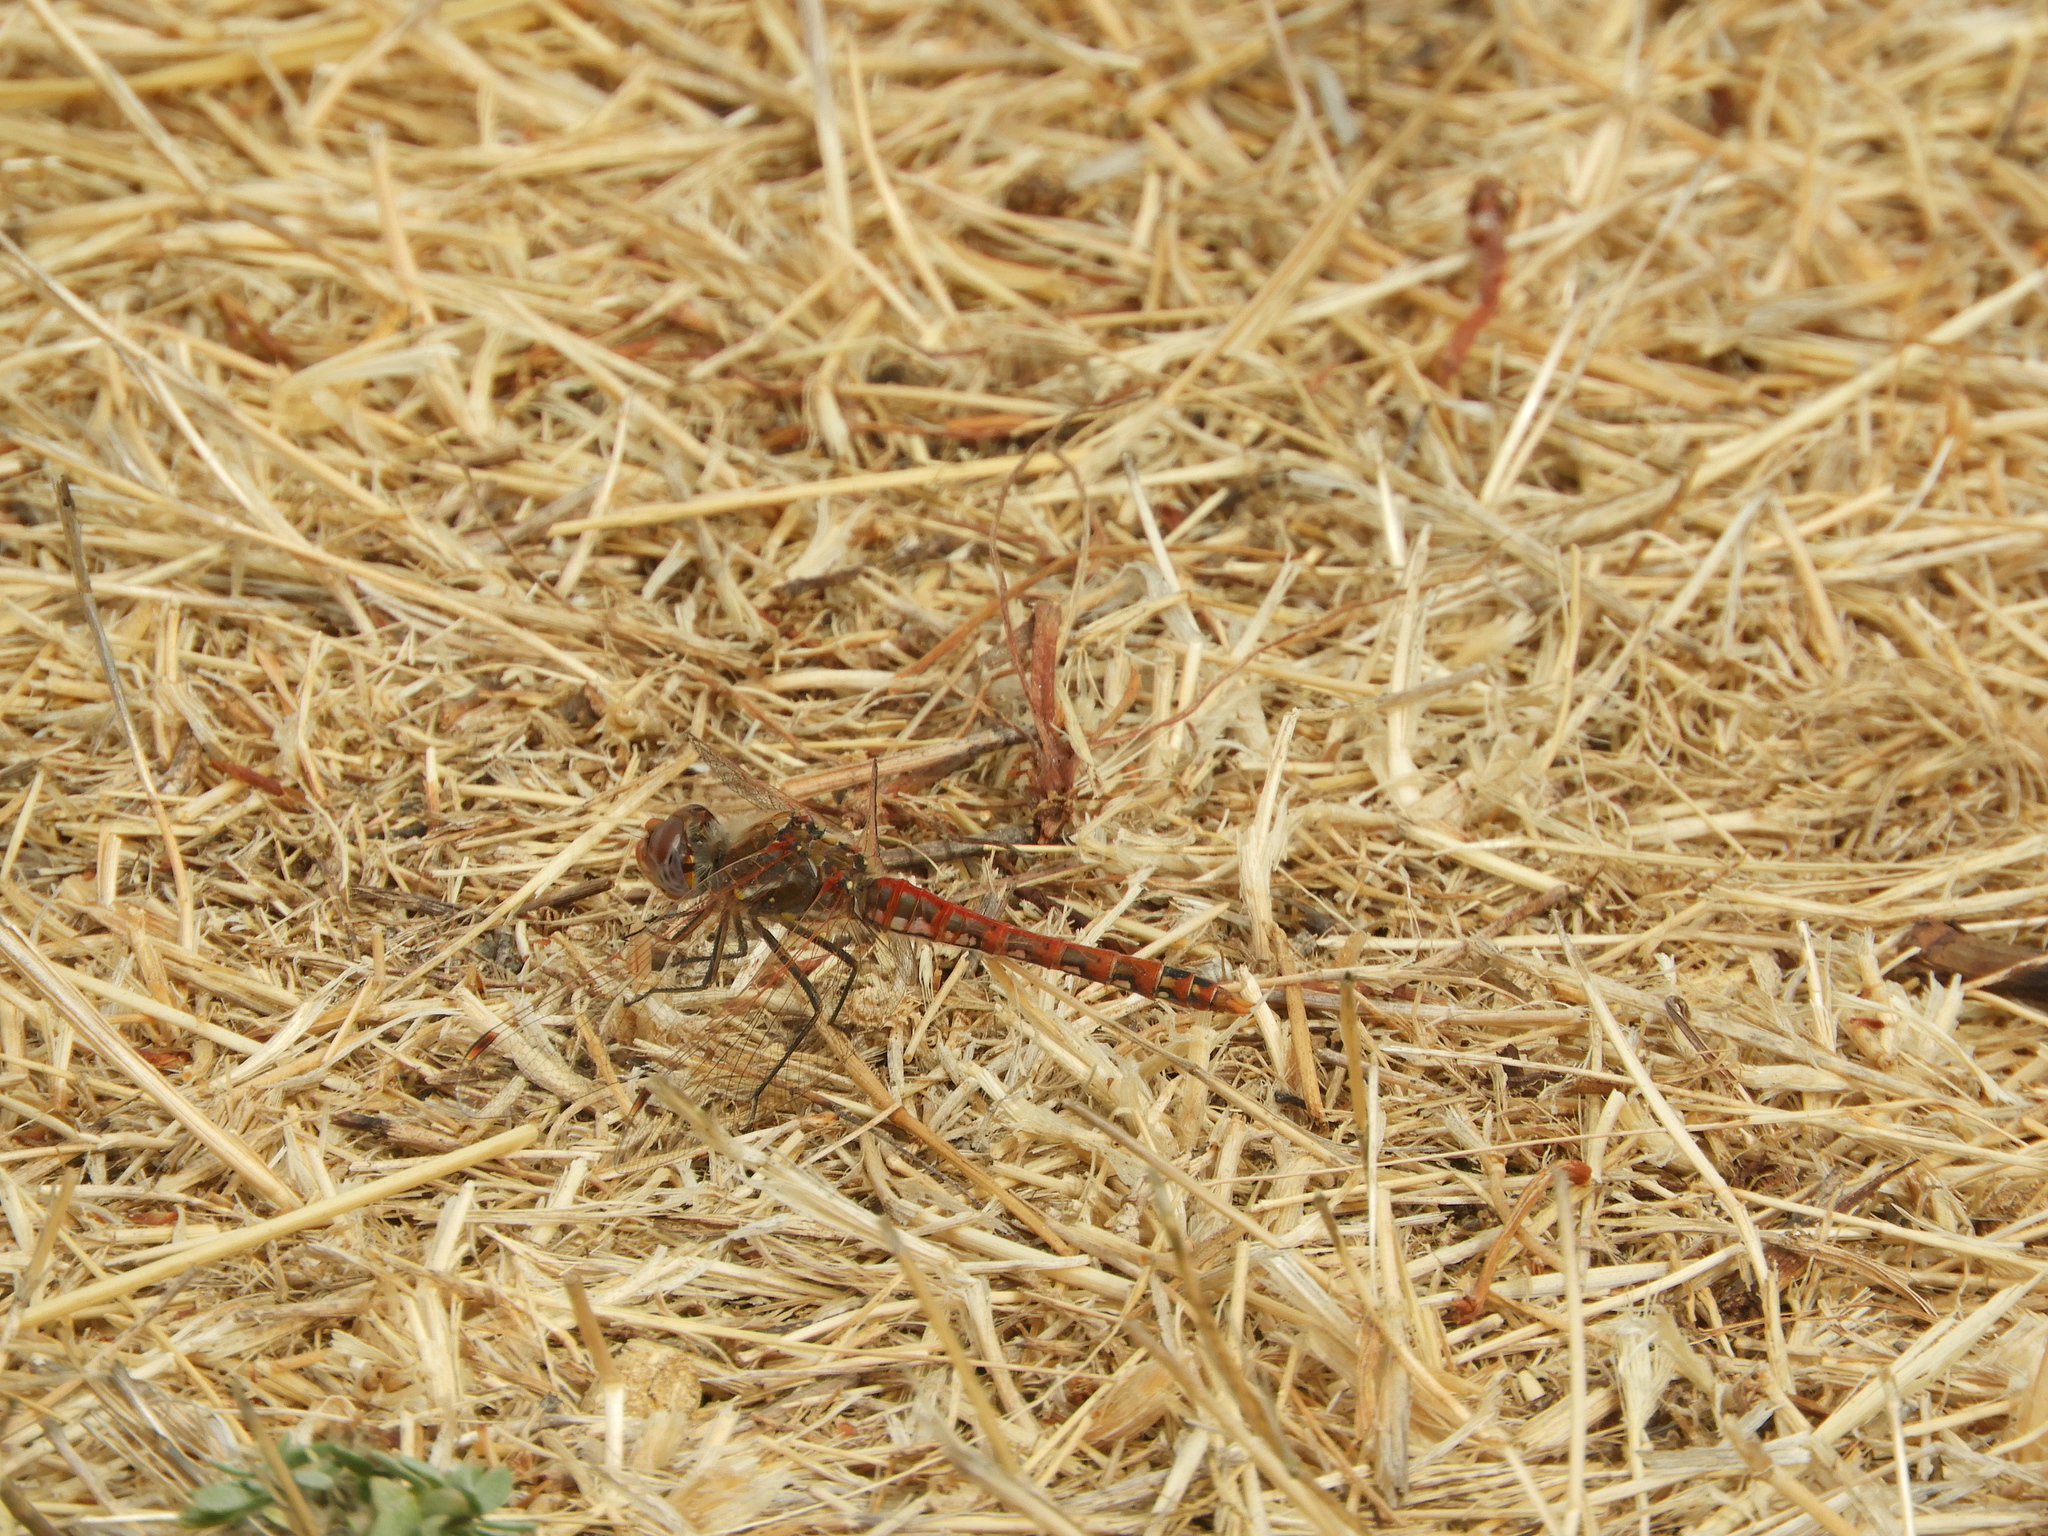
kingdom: Animalia
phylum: Arthropoda
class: Insecta
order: Odonata
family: Libellulidae
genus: Sympetrum
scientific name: Sympetrum corruptum
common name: Variegated meadowhawk
